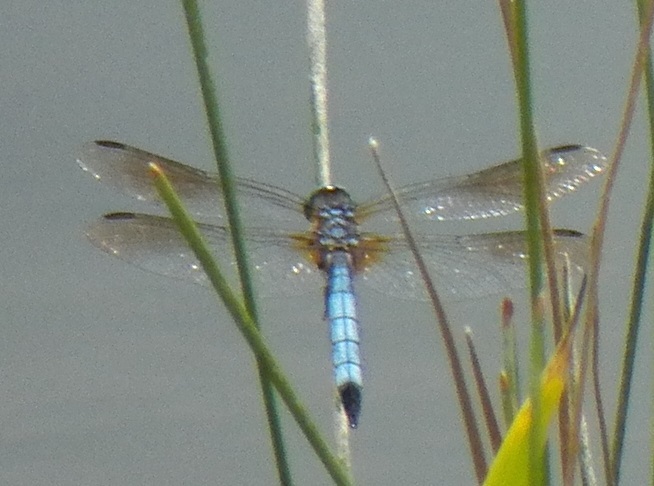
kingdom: Animalia
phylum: Arthropoda
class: Insecta
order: Odonata
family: Libellulidae
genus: Pachydiplax
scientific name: Pachydiplax longipennis
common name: Blue dasher
